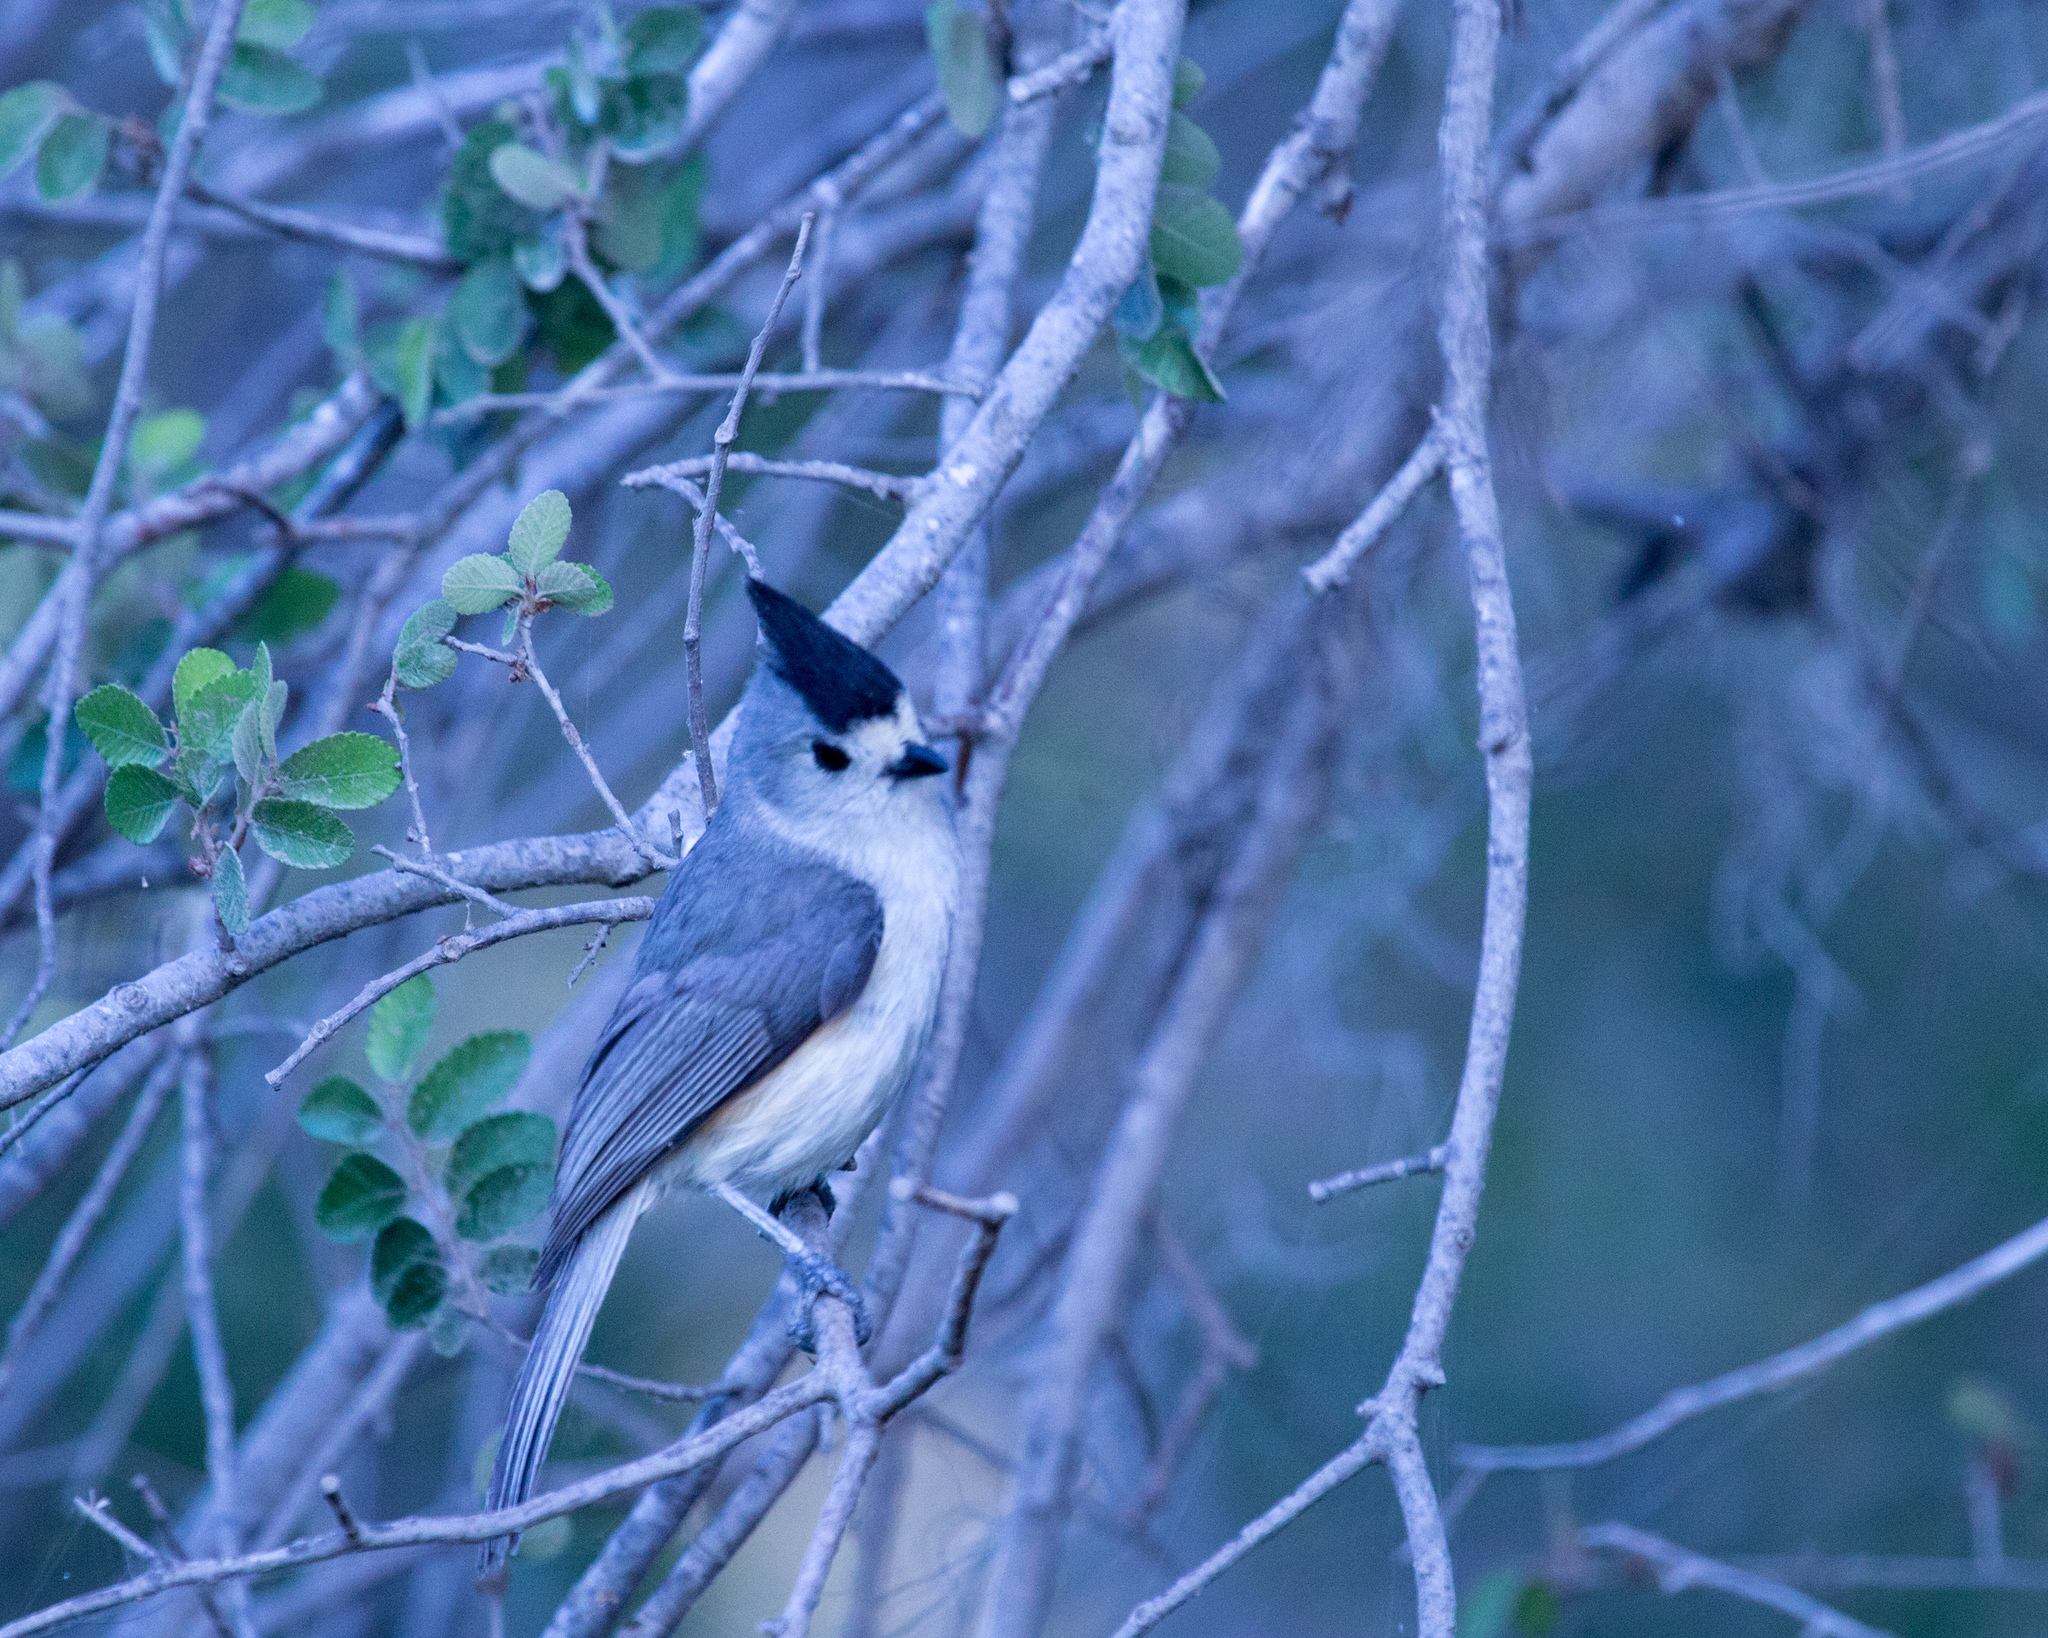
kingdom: Animalia
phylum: Chordata
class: Aves
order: Passeriformes
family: Paridae
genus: Baeolophus
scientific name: Baeolophus atricristatus
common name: Black-crested titmouse
